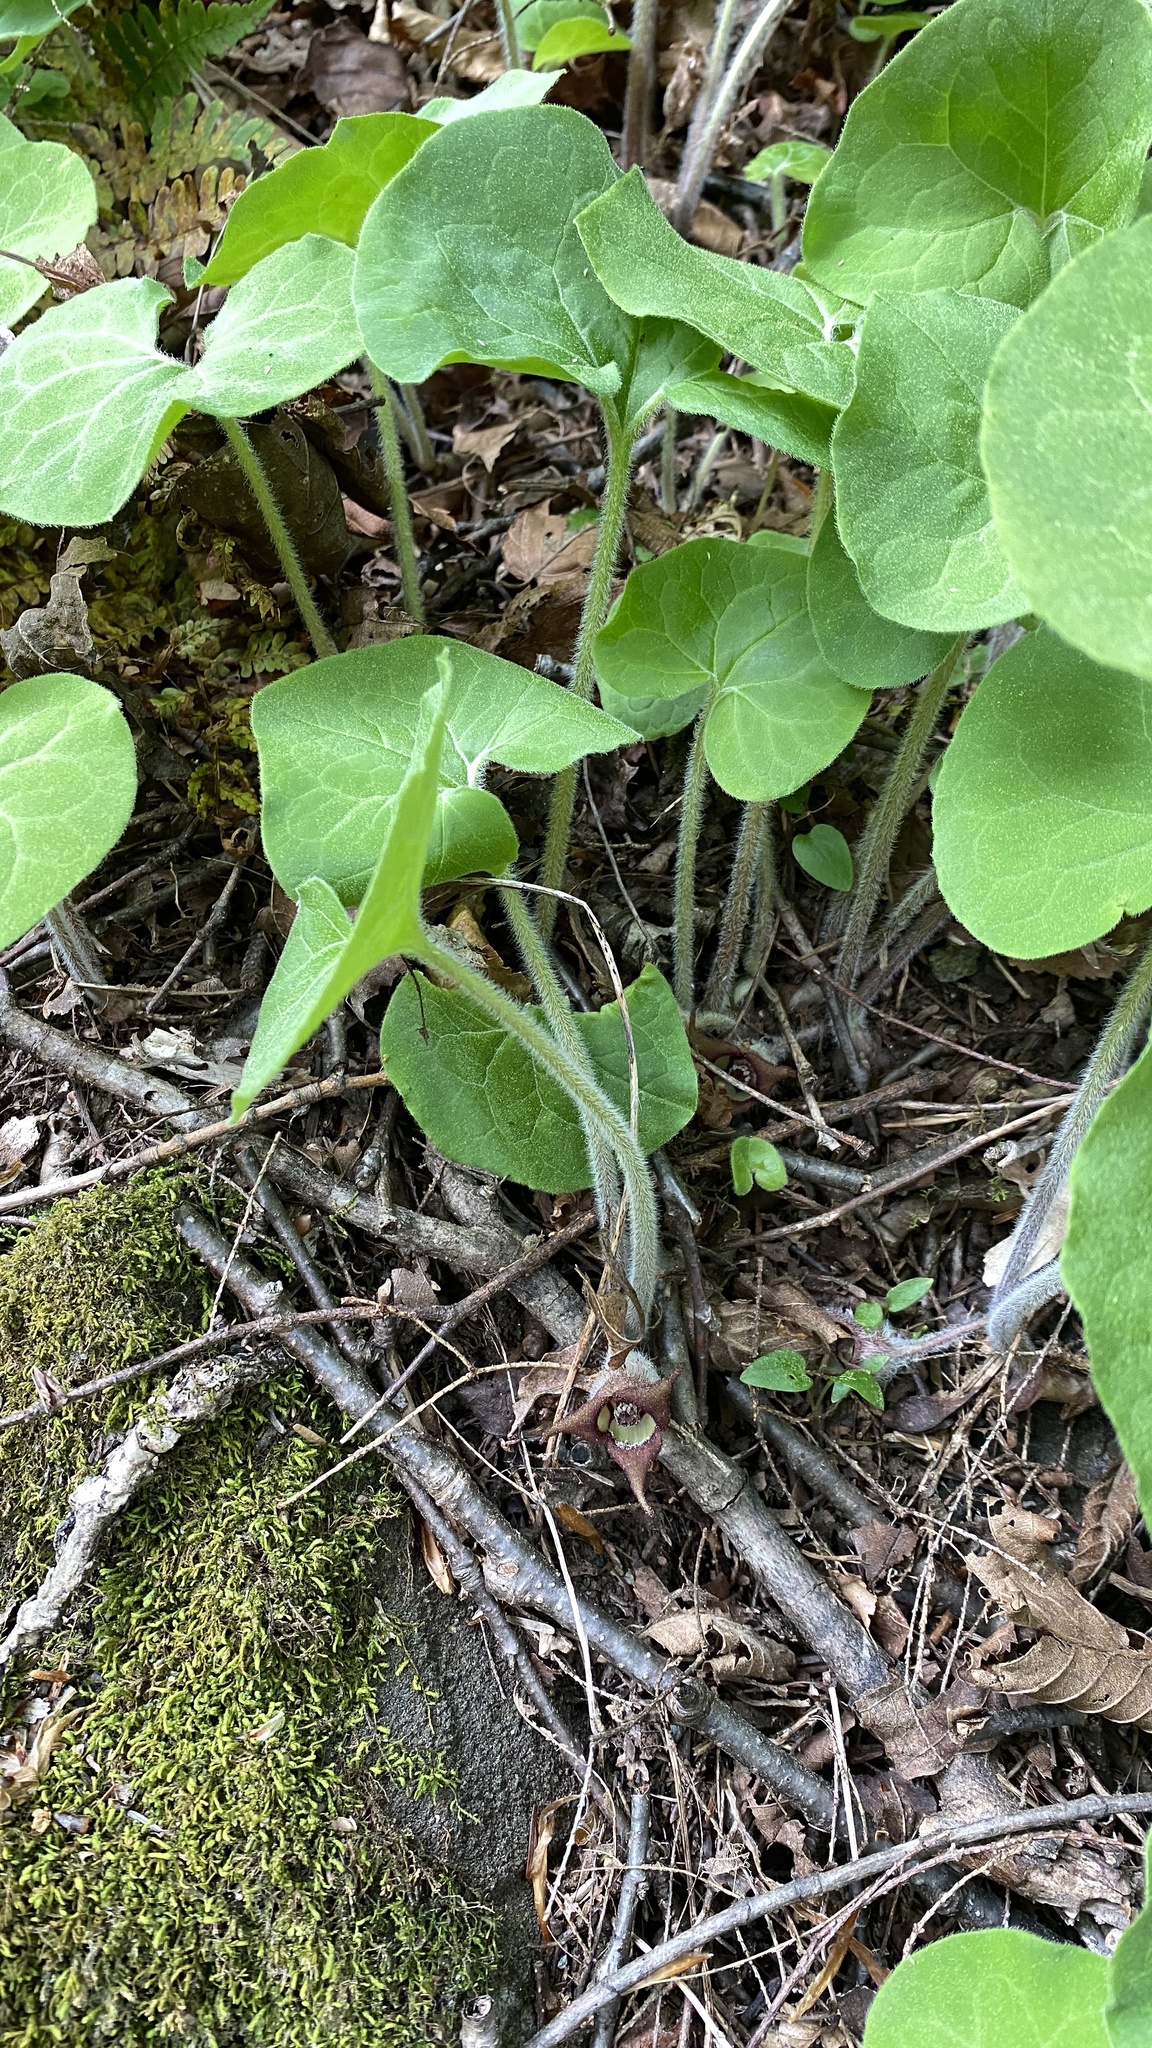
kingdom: Plantae
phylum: Tracheophyta
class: Magnoliopsida
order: Piperales
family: Aristolochiaceae
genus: Asarum
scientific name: Asarum canadense
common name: Wild ginger
